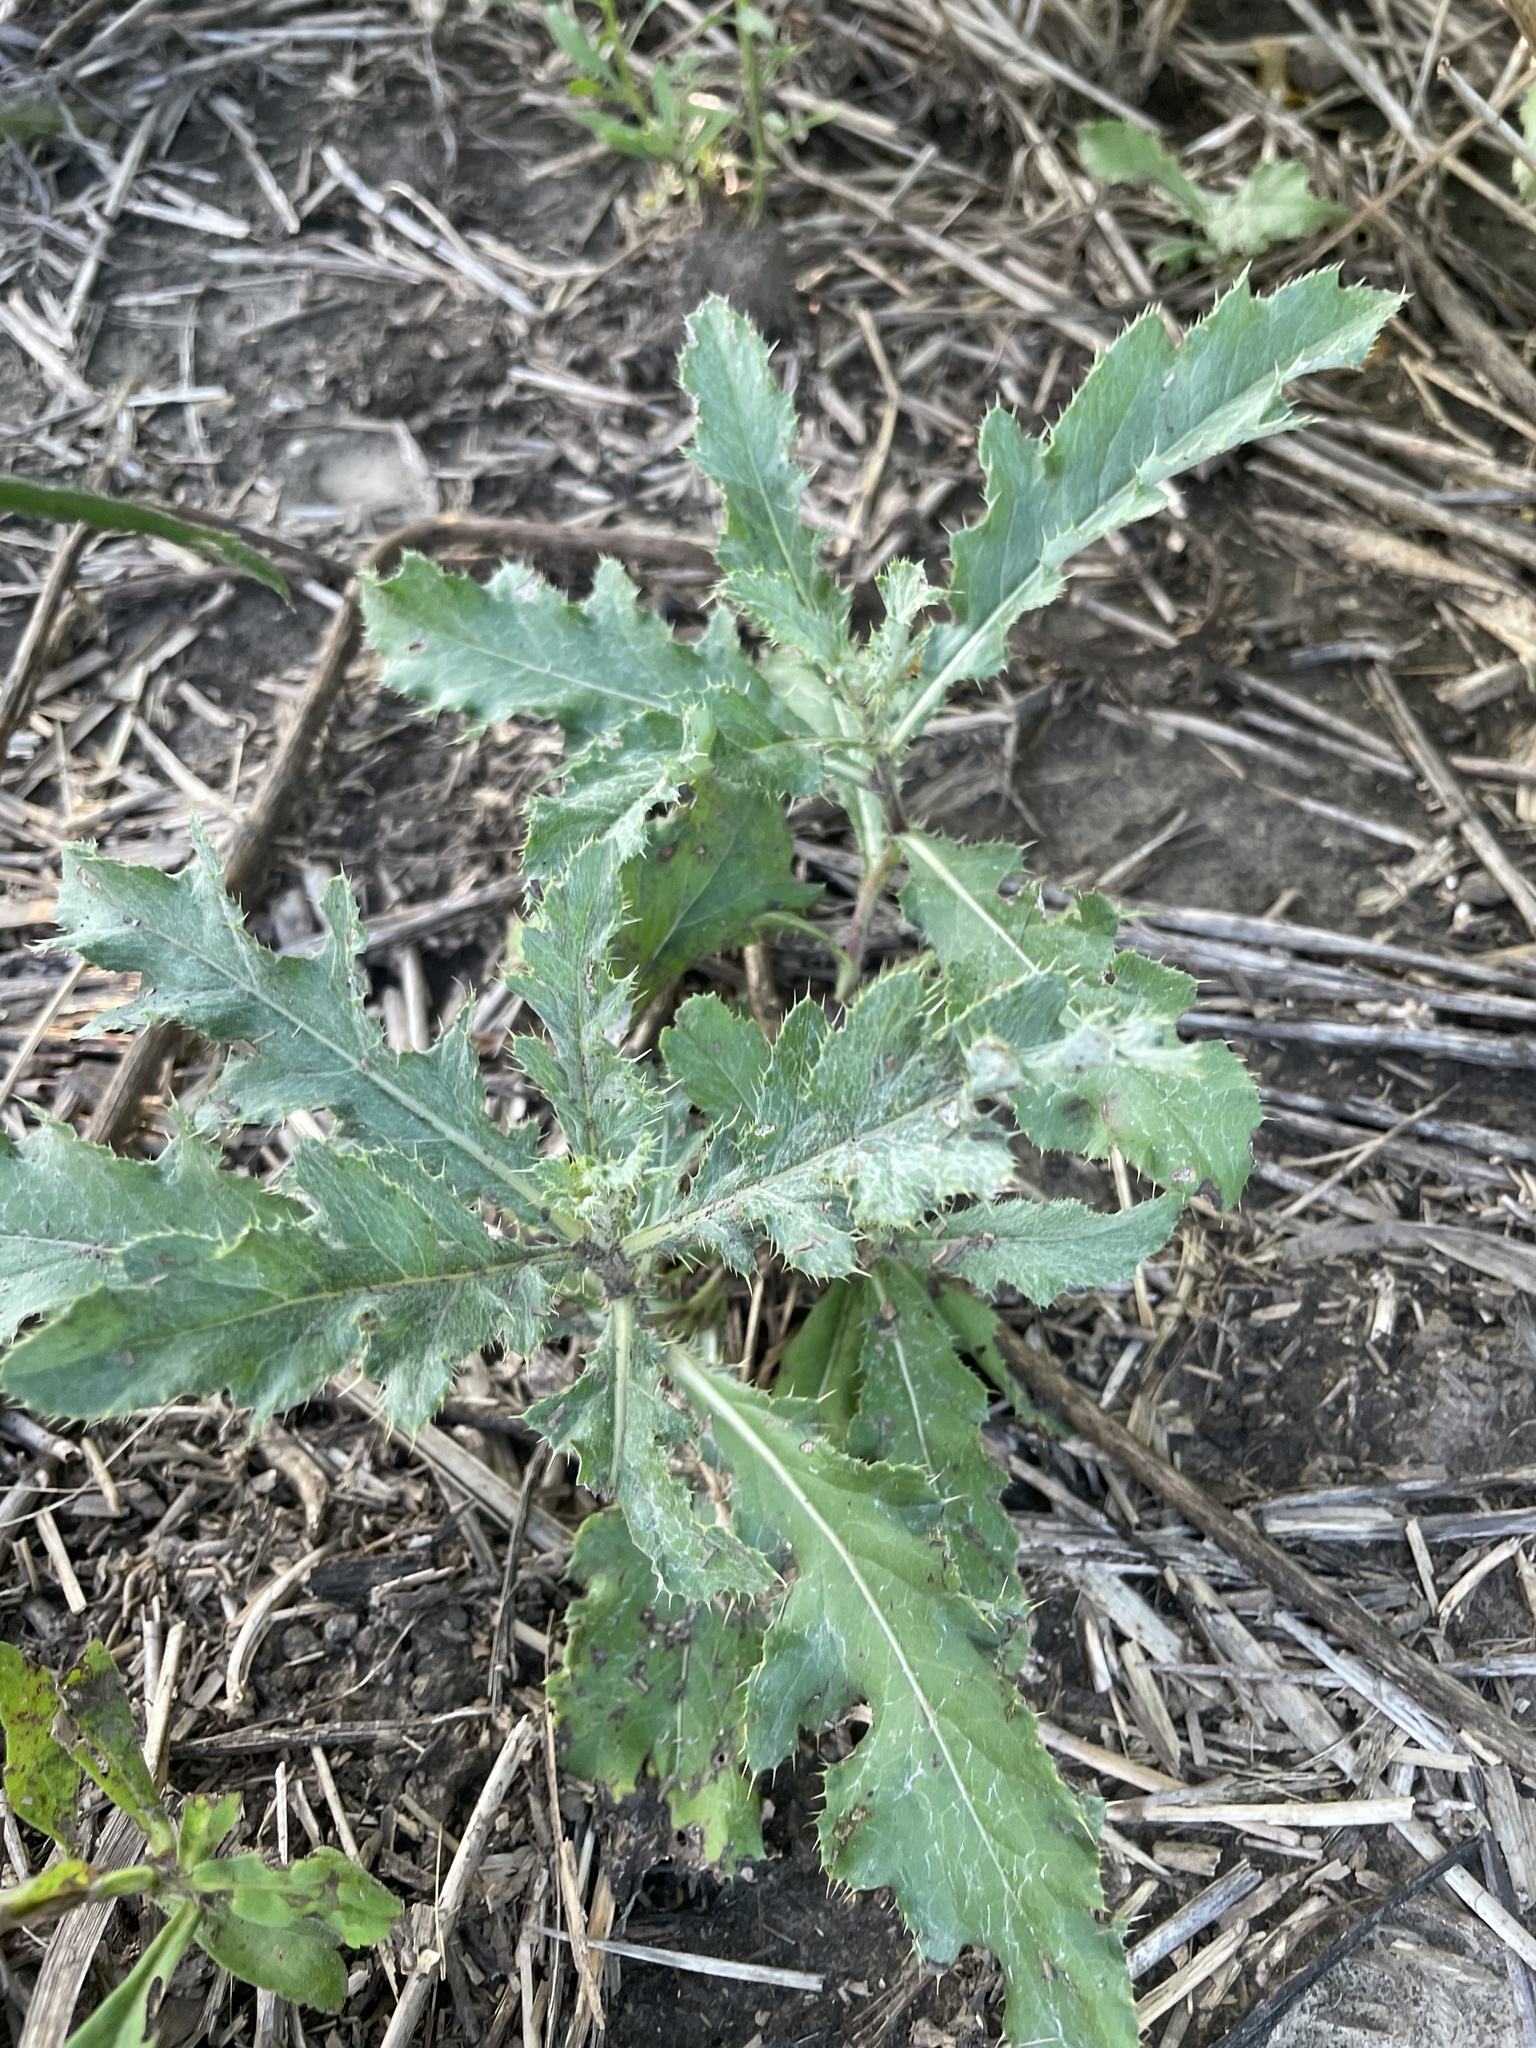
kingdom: Plantae
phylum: Tracheophyta
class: Magnoliopsida
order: Asterales
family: Asteraceae
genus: Cirsium
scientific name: Cirsium arvense
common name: Creeping thistle
